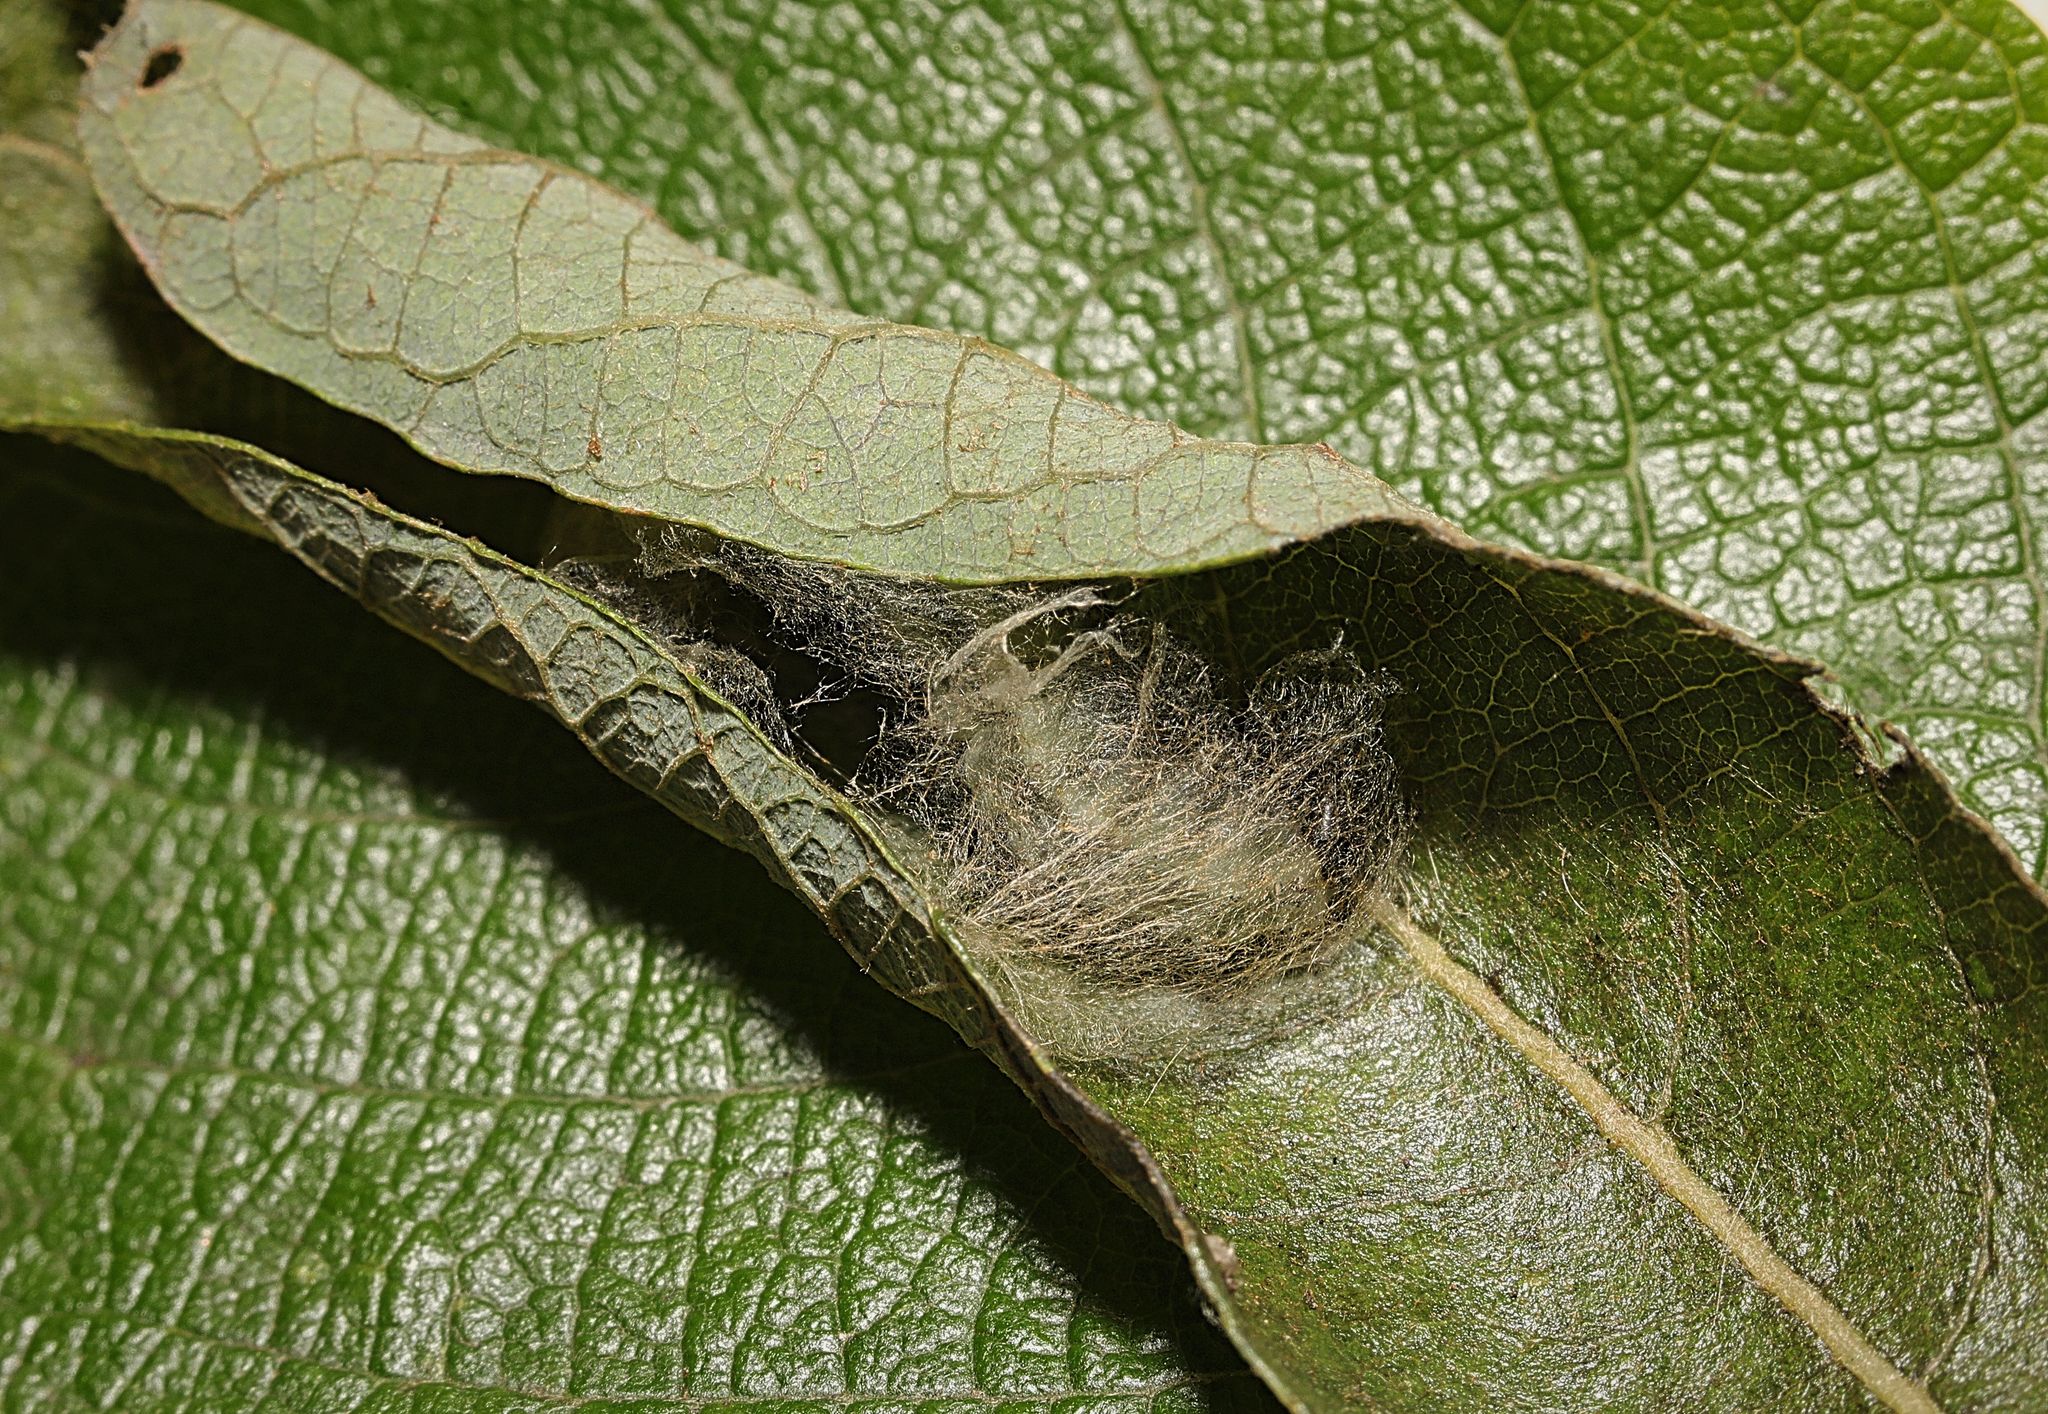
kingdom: Animalia
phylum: Arthropoda
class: Insecta
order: Lepidoptera
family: Noctuidae
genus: Autographa
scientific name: Autographa gamma
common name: Silver y
